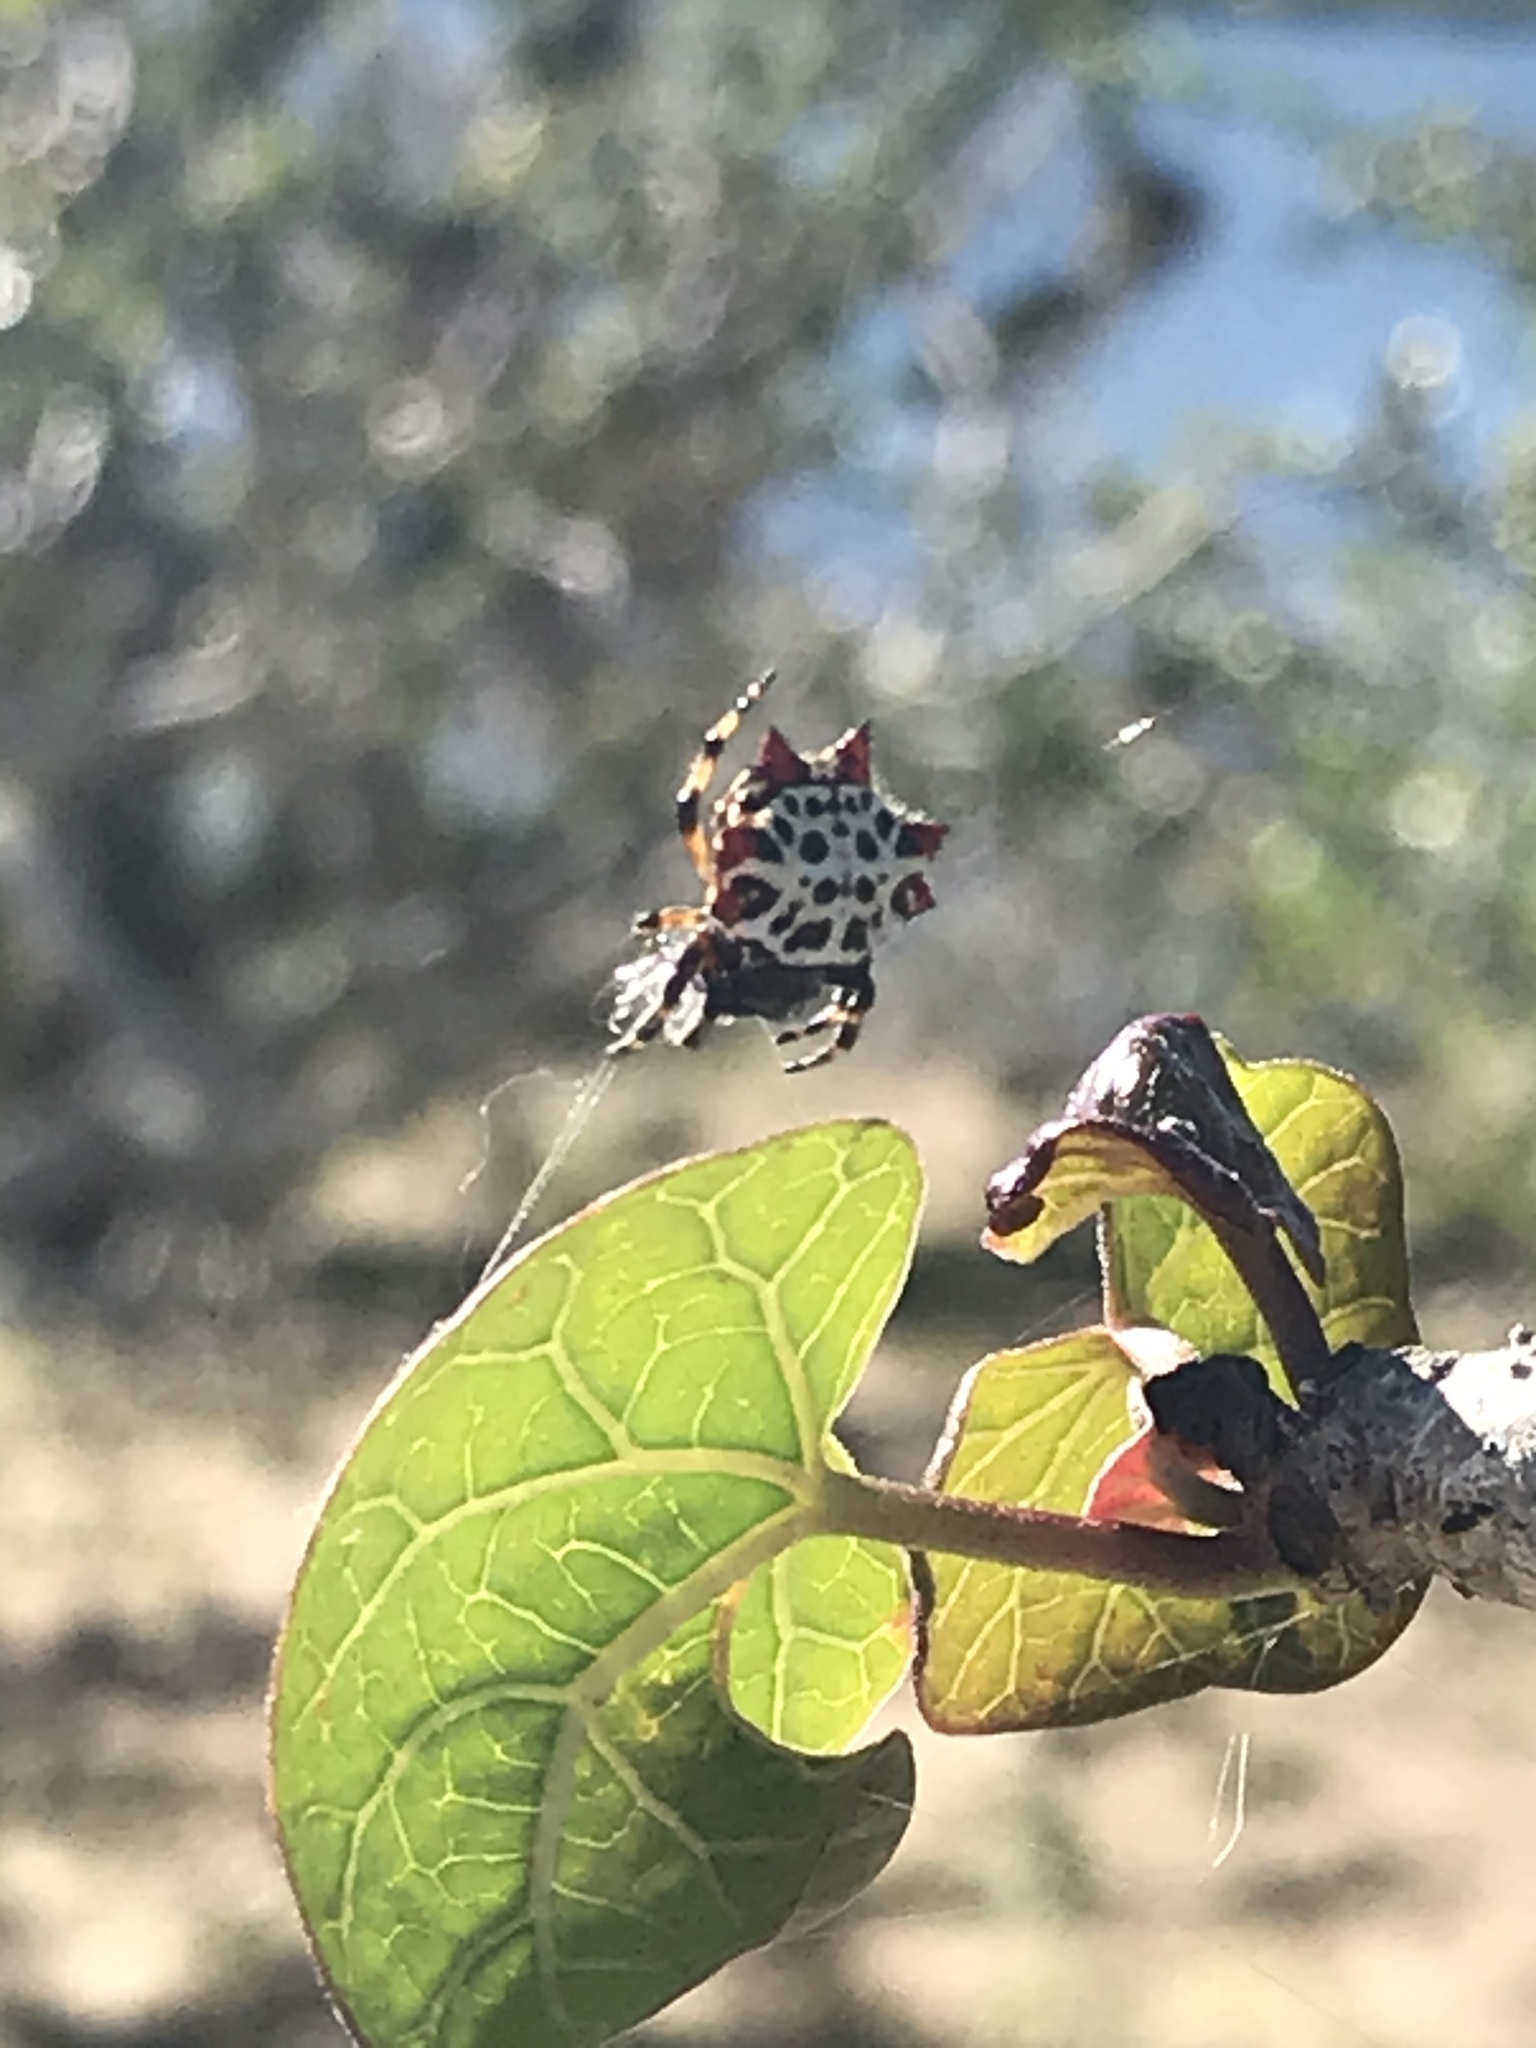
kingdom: Animalia
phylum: Arthropoda
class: Arachnida
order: Araneae
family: Araneidae
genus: Gasteracantha
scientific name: Gasteracantha cancriformis
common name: Orb weavers
